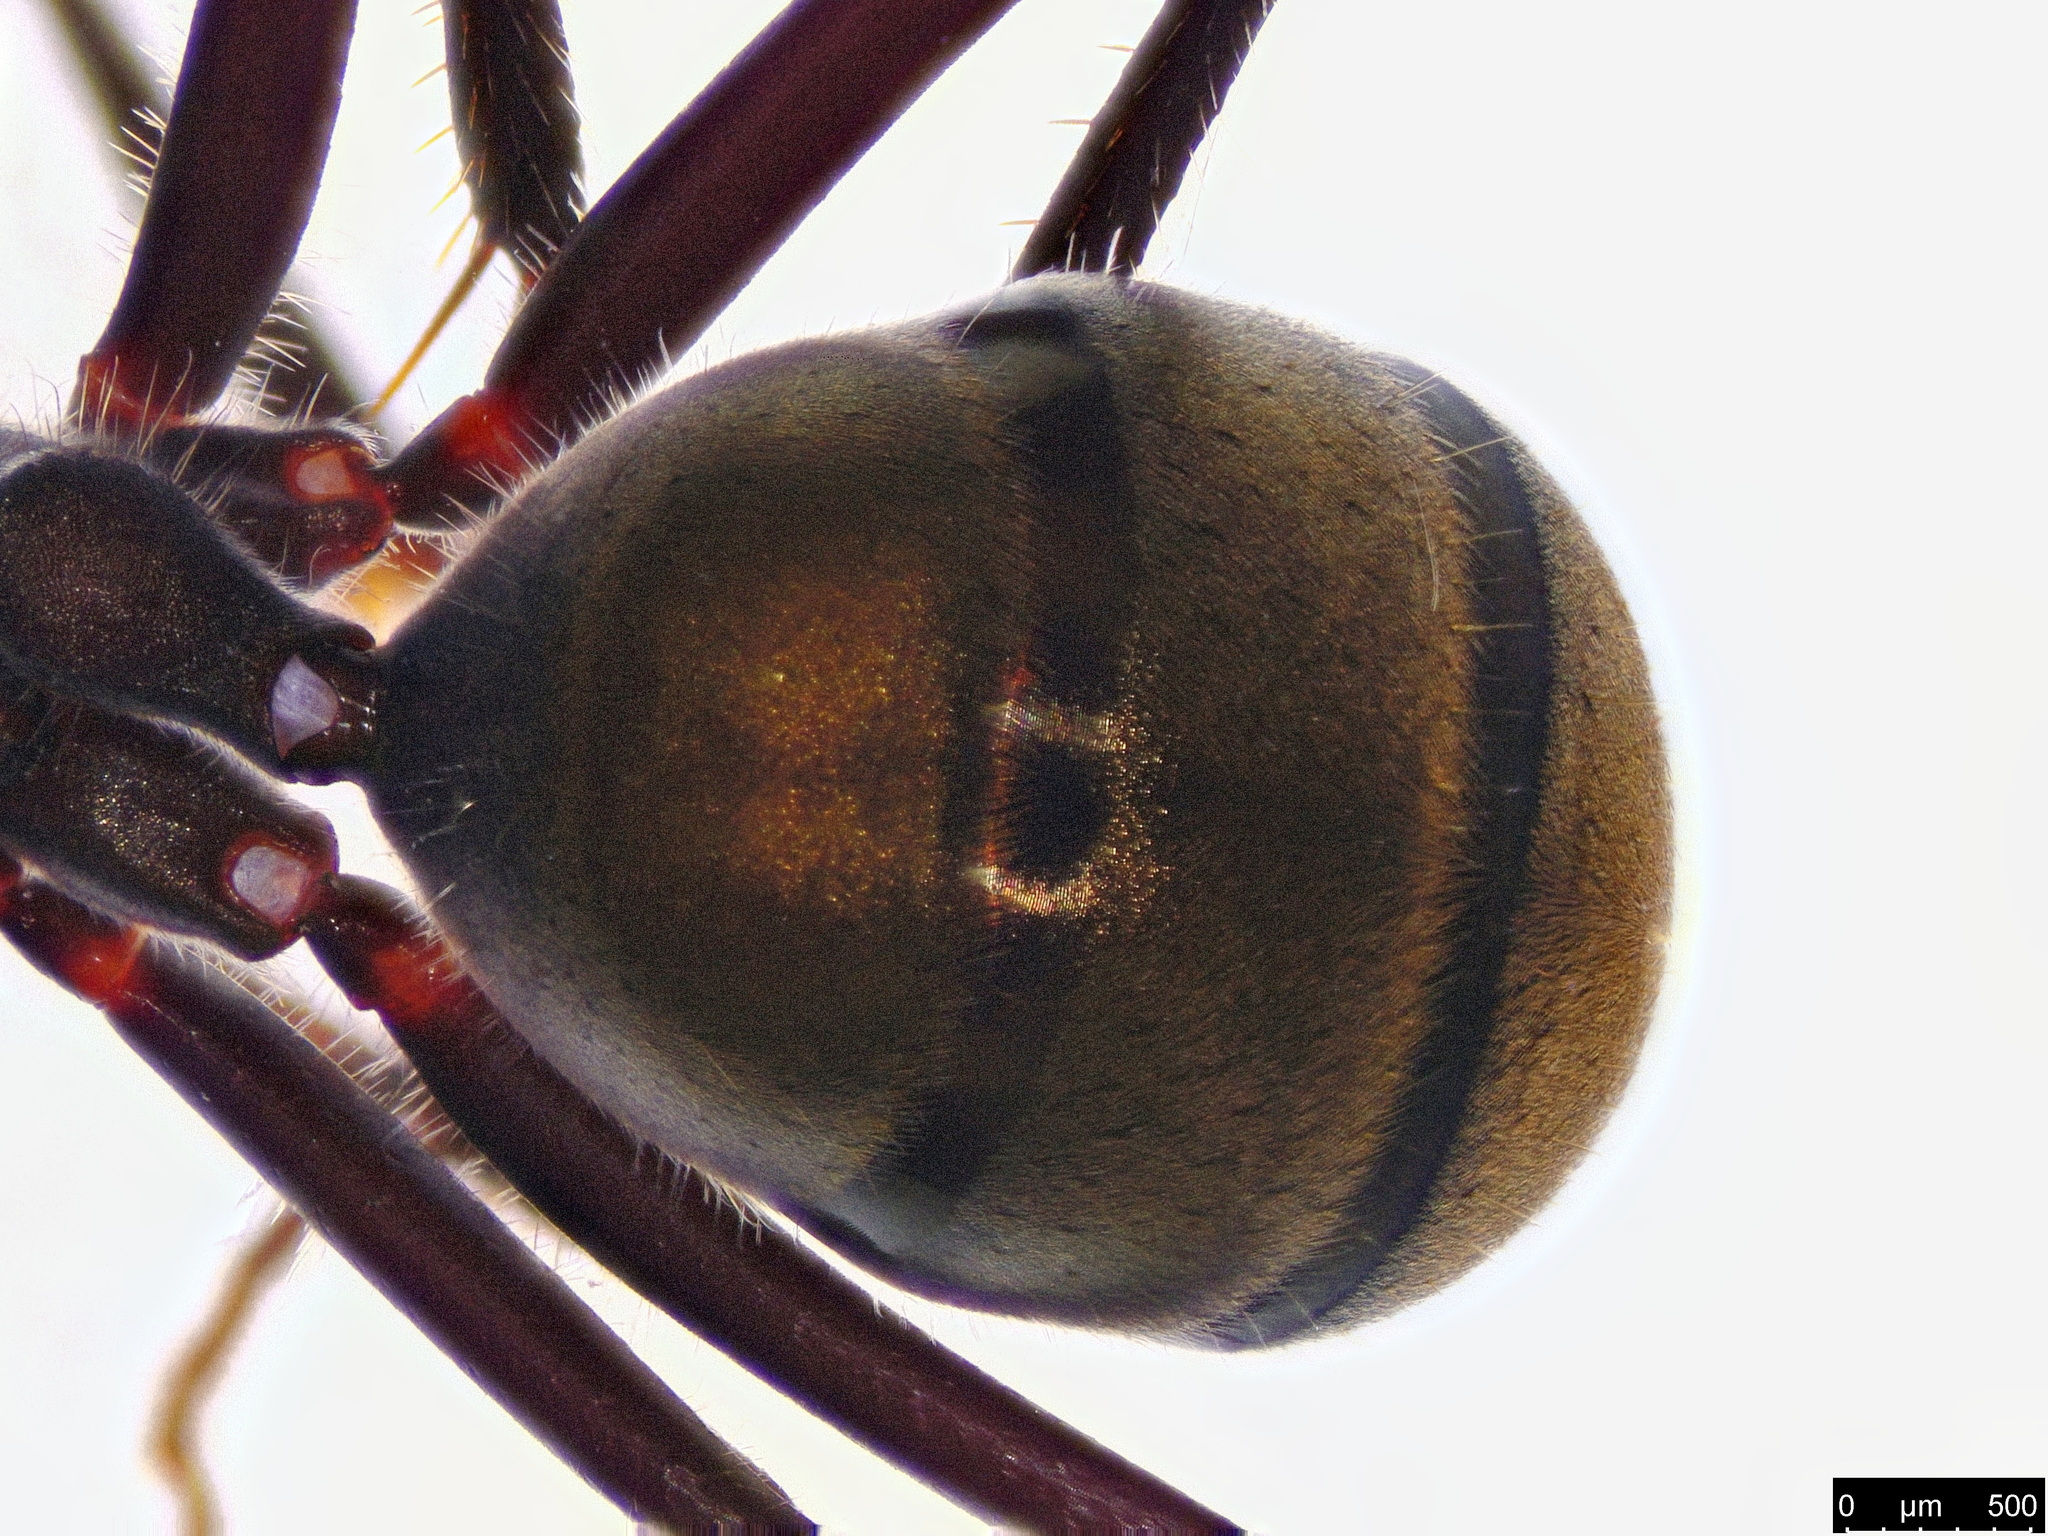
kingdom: Animalia
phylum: Arthropoda
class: Insecta
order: Hymenoptera
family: Formicidae
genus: Camponotus
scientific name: Camponotus suffusus
